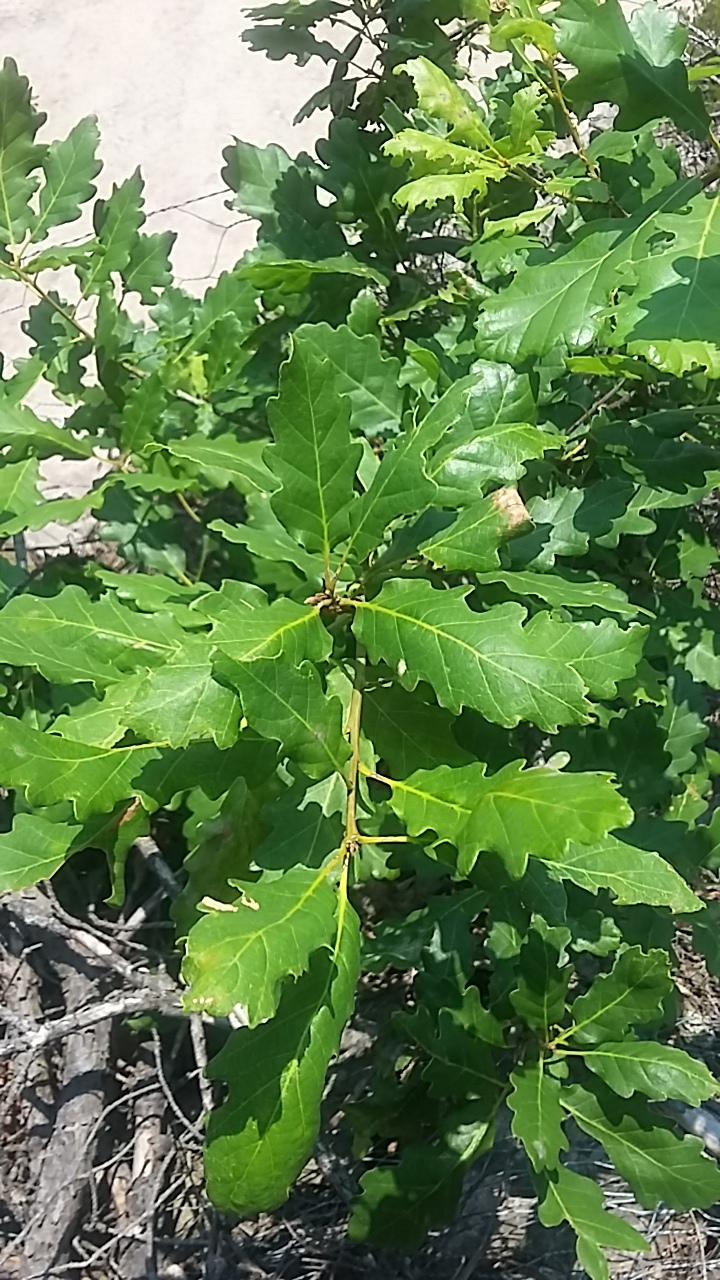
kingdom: Plantae
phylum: Tracheophyta
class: Magnoliopsida
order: Fagales
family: Fagaceae
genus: Quercus
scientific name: Quercus robur
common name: Pedunculate oak
